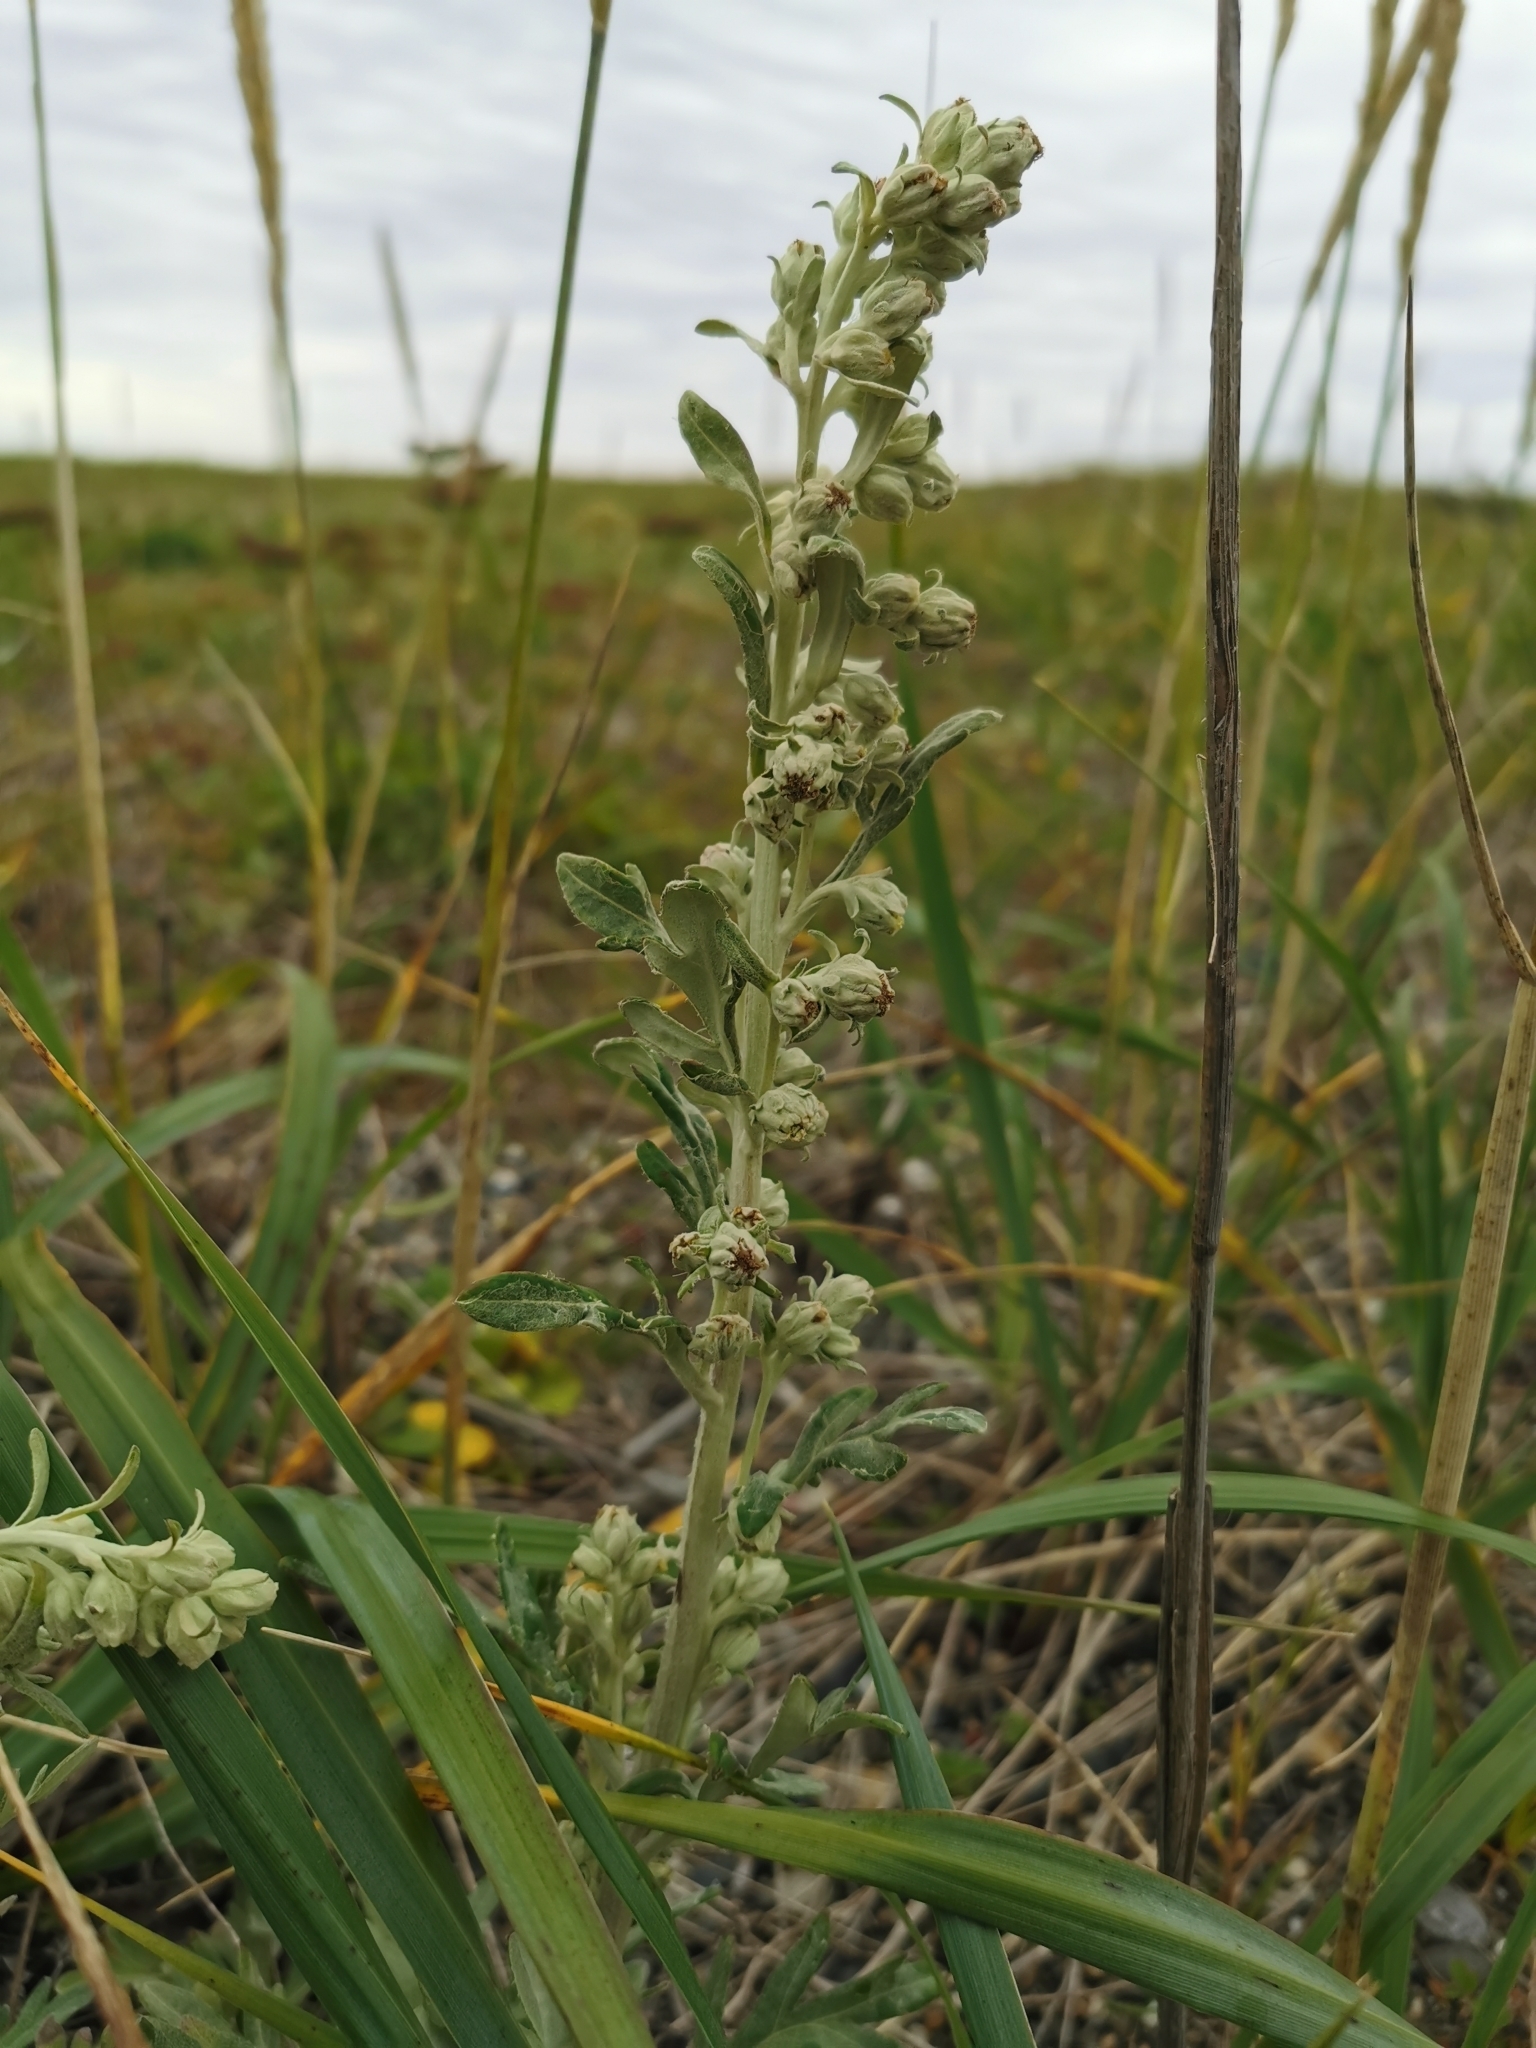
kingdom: Plantae
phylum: Tracheophyta
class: Magnoliopsida
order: Asterales
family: Asteraceae
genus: Artemisia
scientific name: Artemisia stelleriana
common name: Beach wormwood
